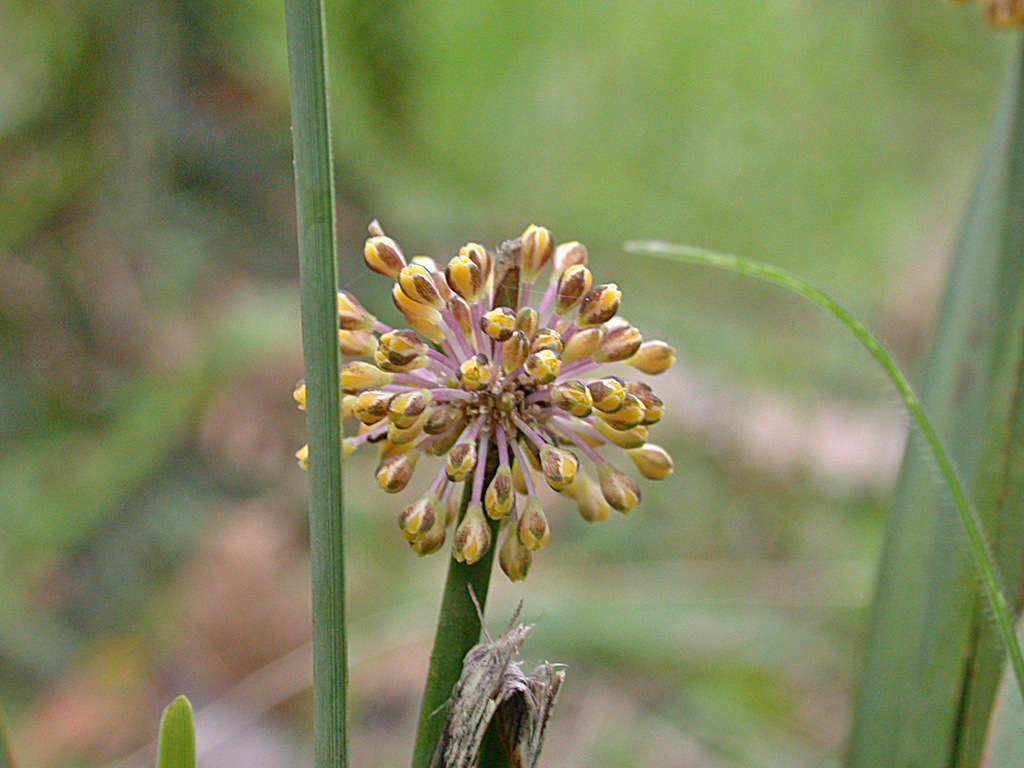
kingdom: Plantae
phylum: Tracheophyta
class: Liliopsida
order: Asparagales
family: Asparagaceae
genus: Lomandra
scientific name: Lomandra multiflora
